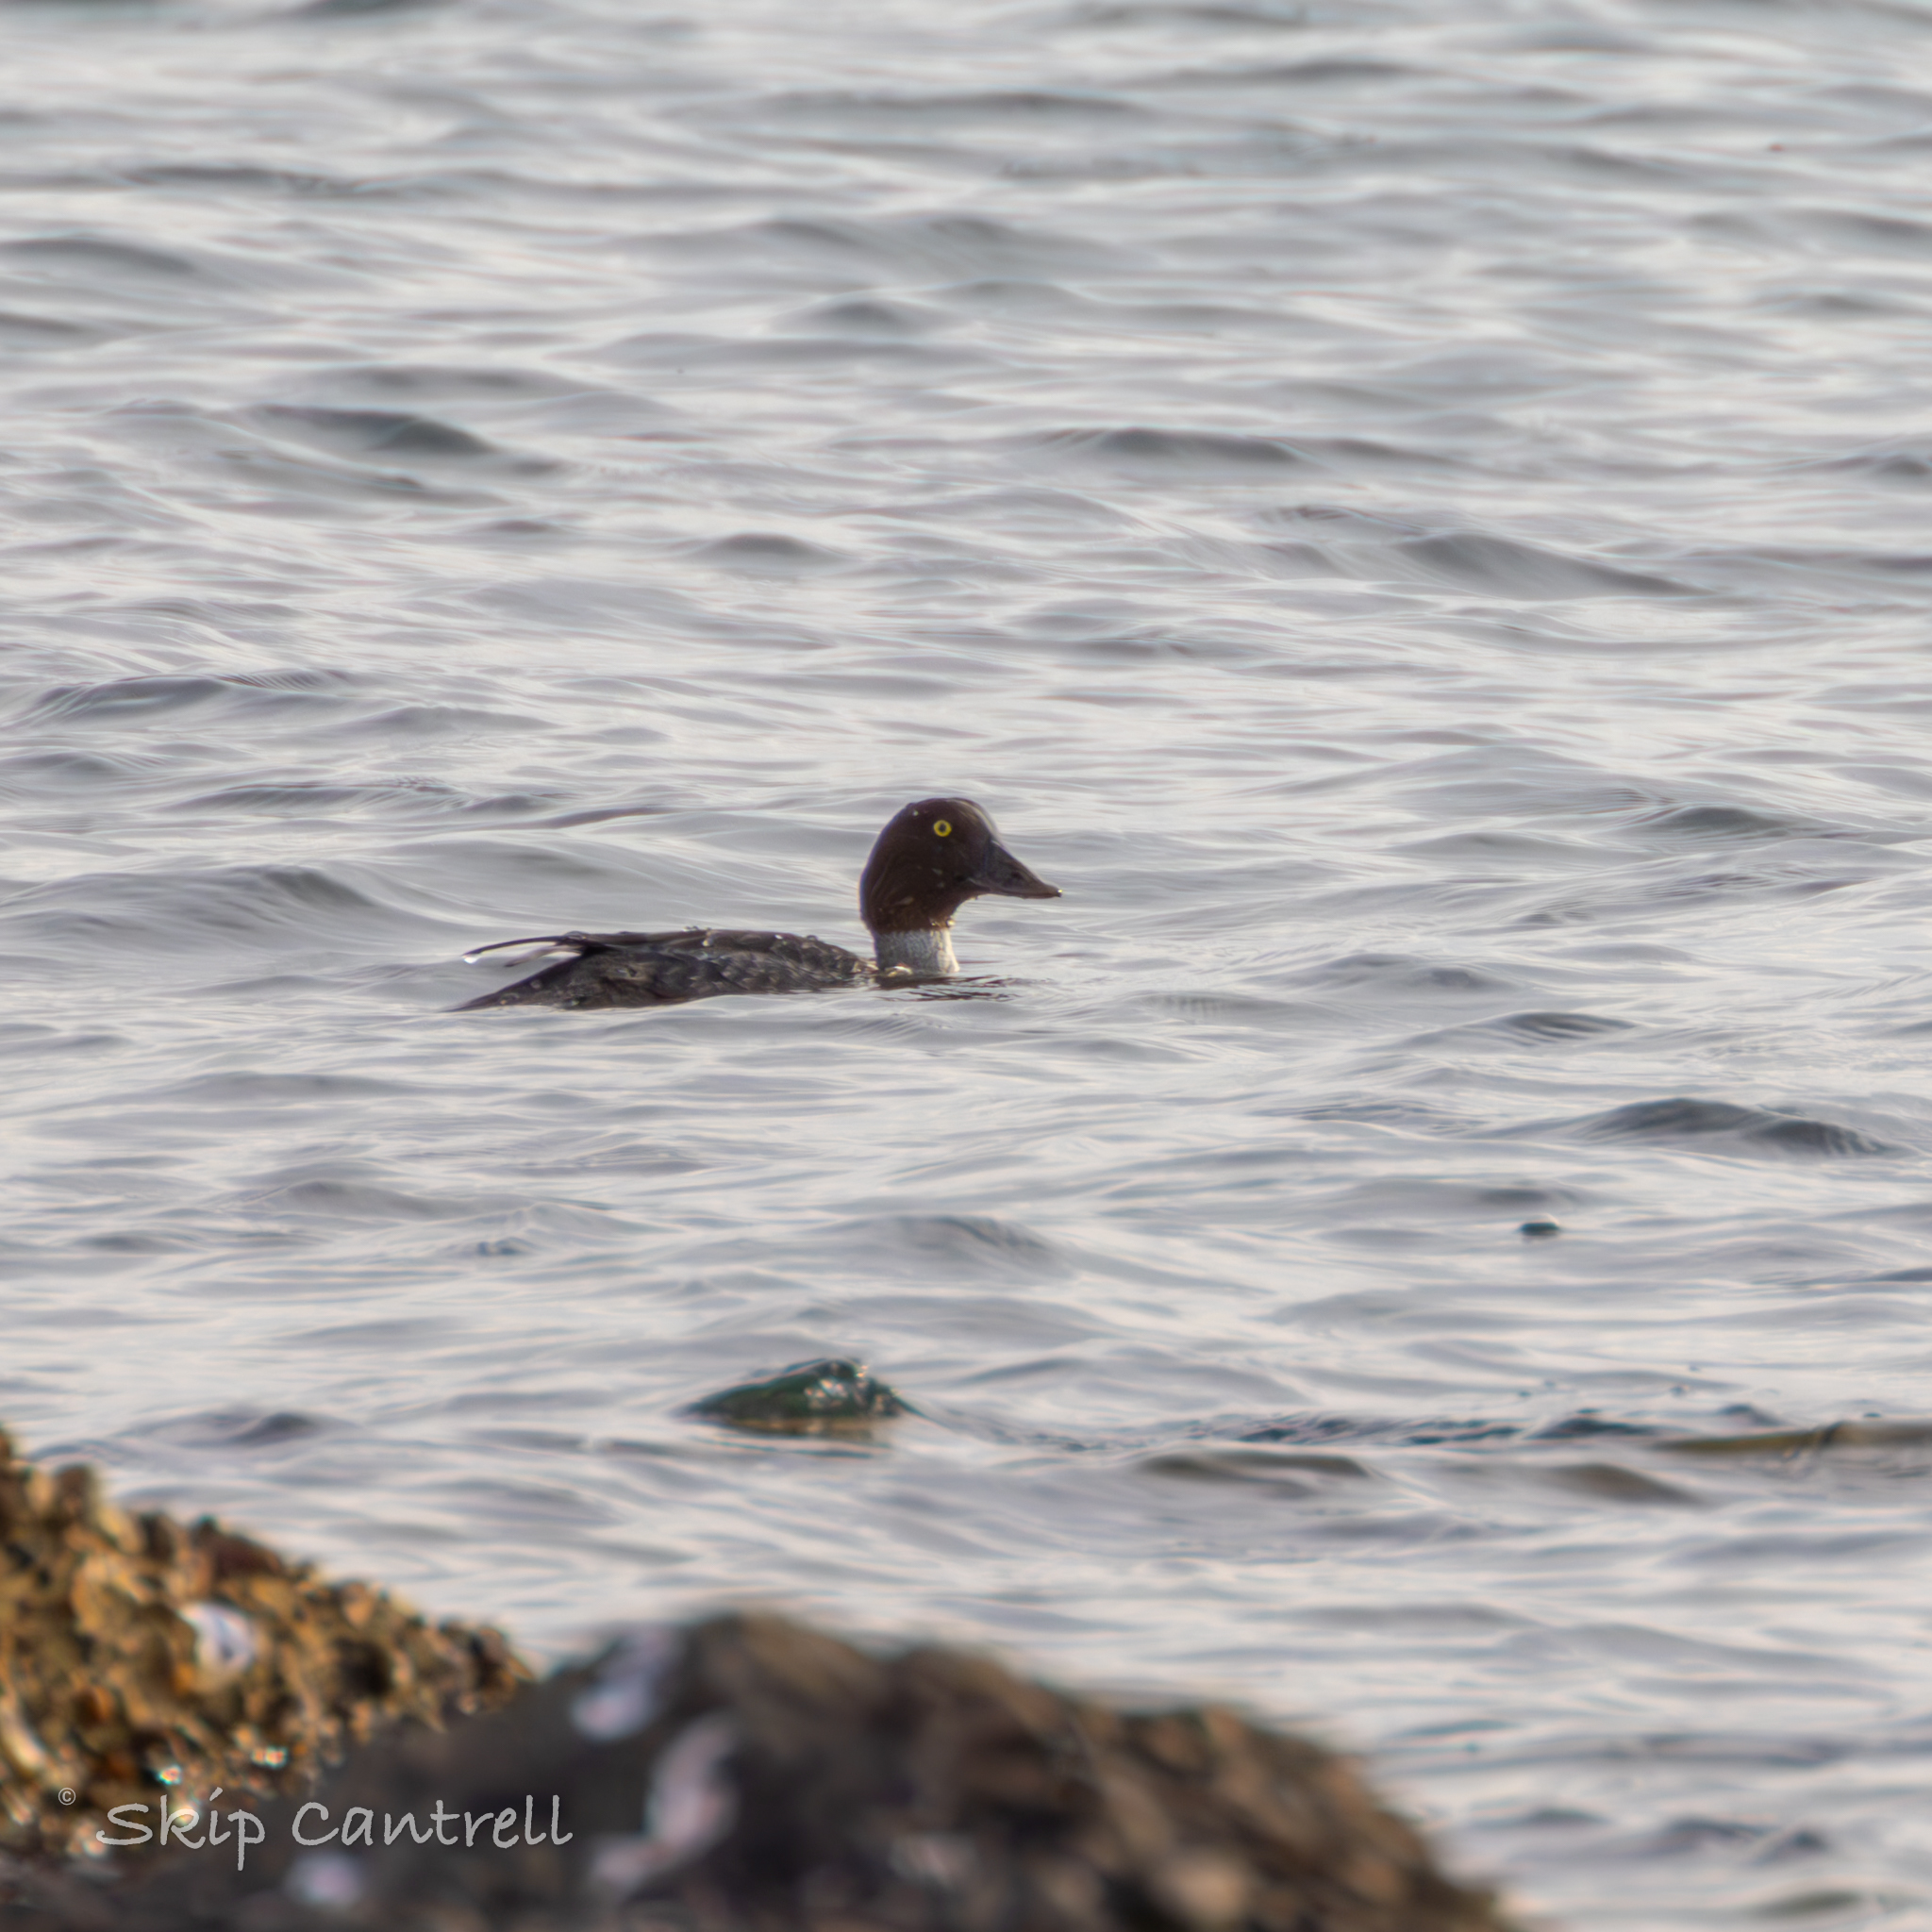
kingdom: Animalia
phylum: Chordata
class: Aves
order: Anseriformes
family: Anatidae
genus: Bucephala
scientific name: Bucephala clangula
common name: Common goldeneye
